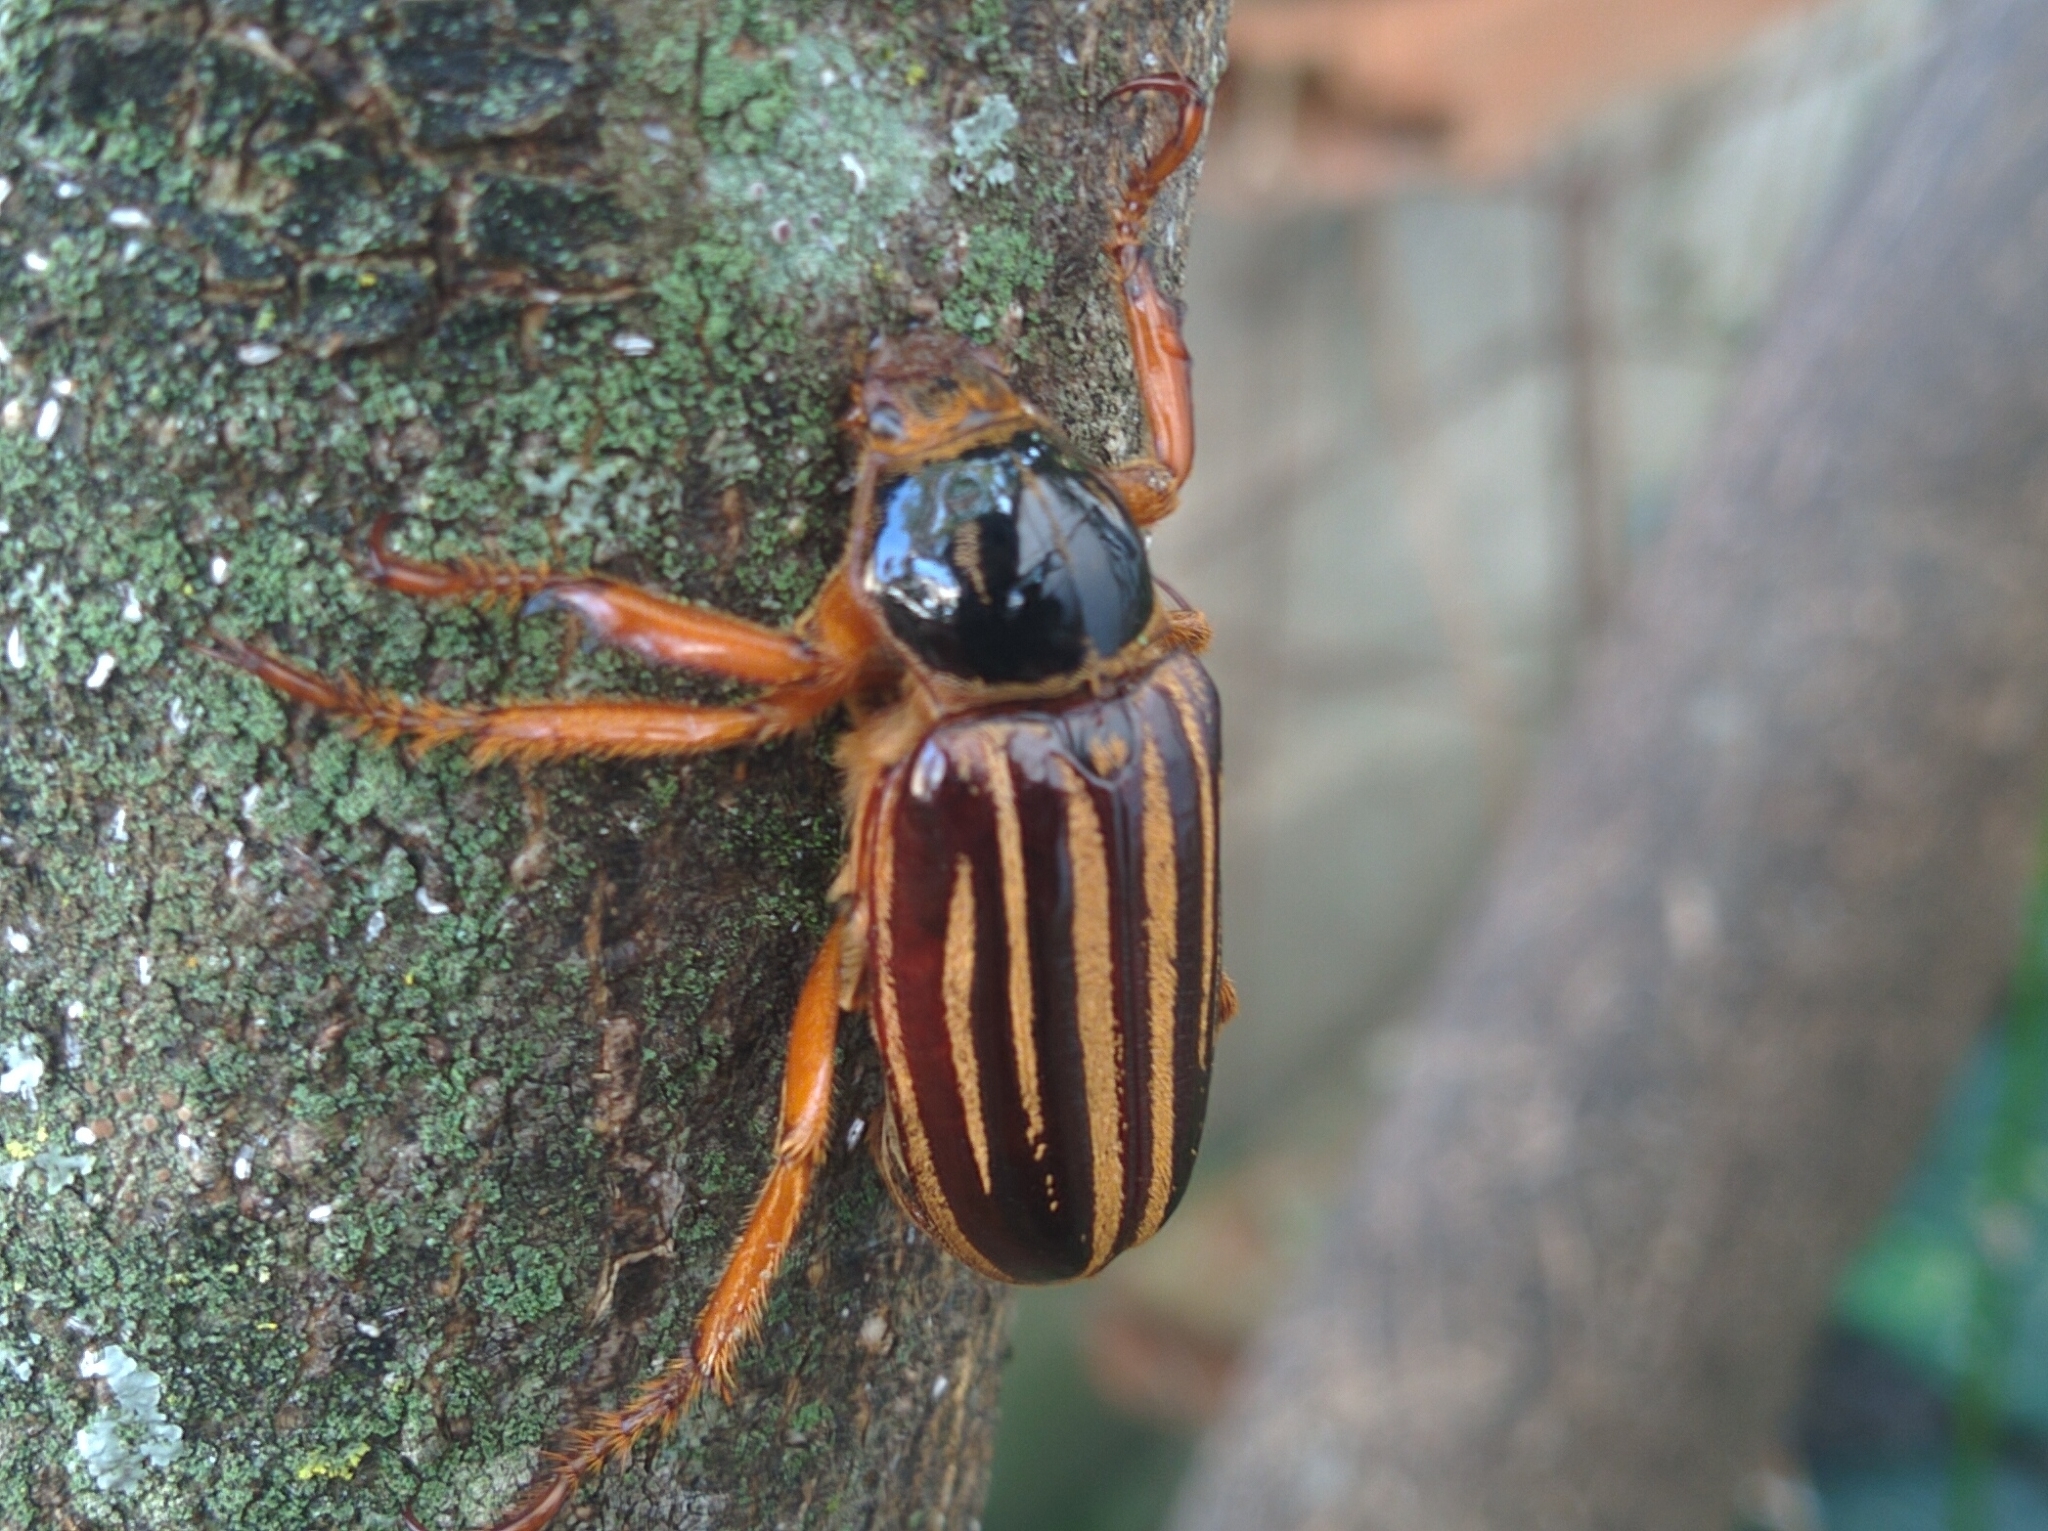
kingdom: Animalia
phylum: Arthropoda
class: Insecta
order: Coleoptera
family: Scarabaeidae
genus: Ancistrosoma
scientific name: Ancistrosoma flavovittatum
